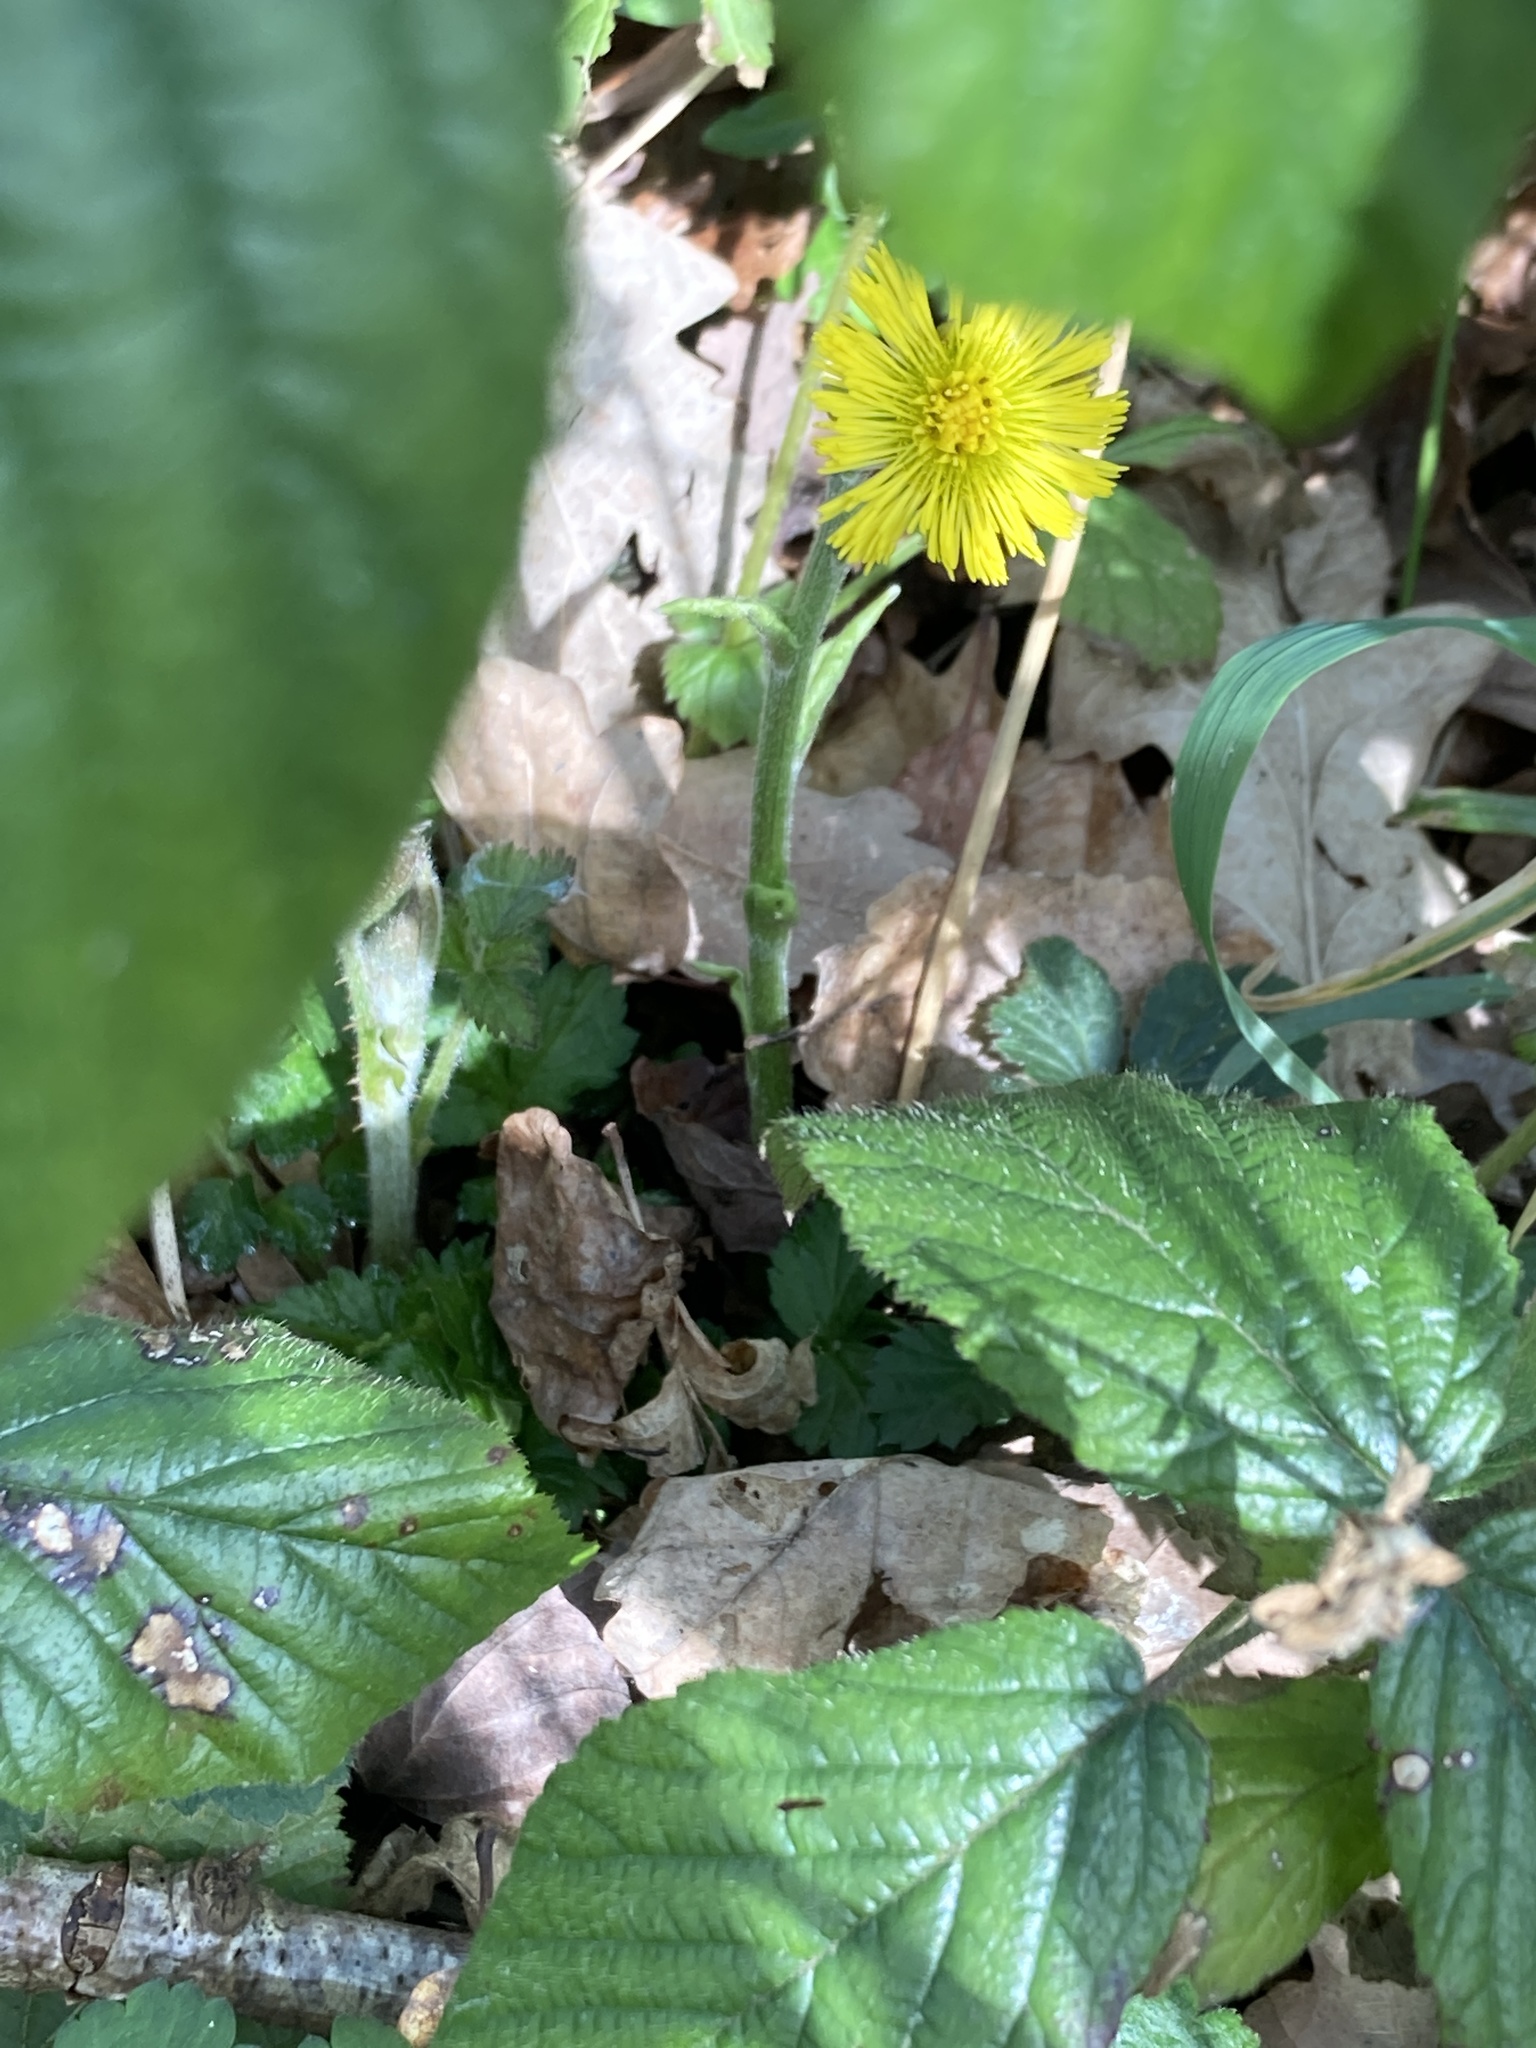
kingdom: Plantae
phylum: Tracheophyta
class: Magnoliopsida
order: Asterales
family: Asteraceae
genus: Tussilago
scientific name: Tussilago farfara
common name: Coltsfoot
